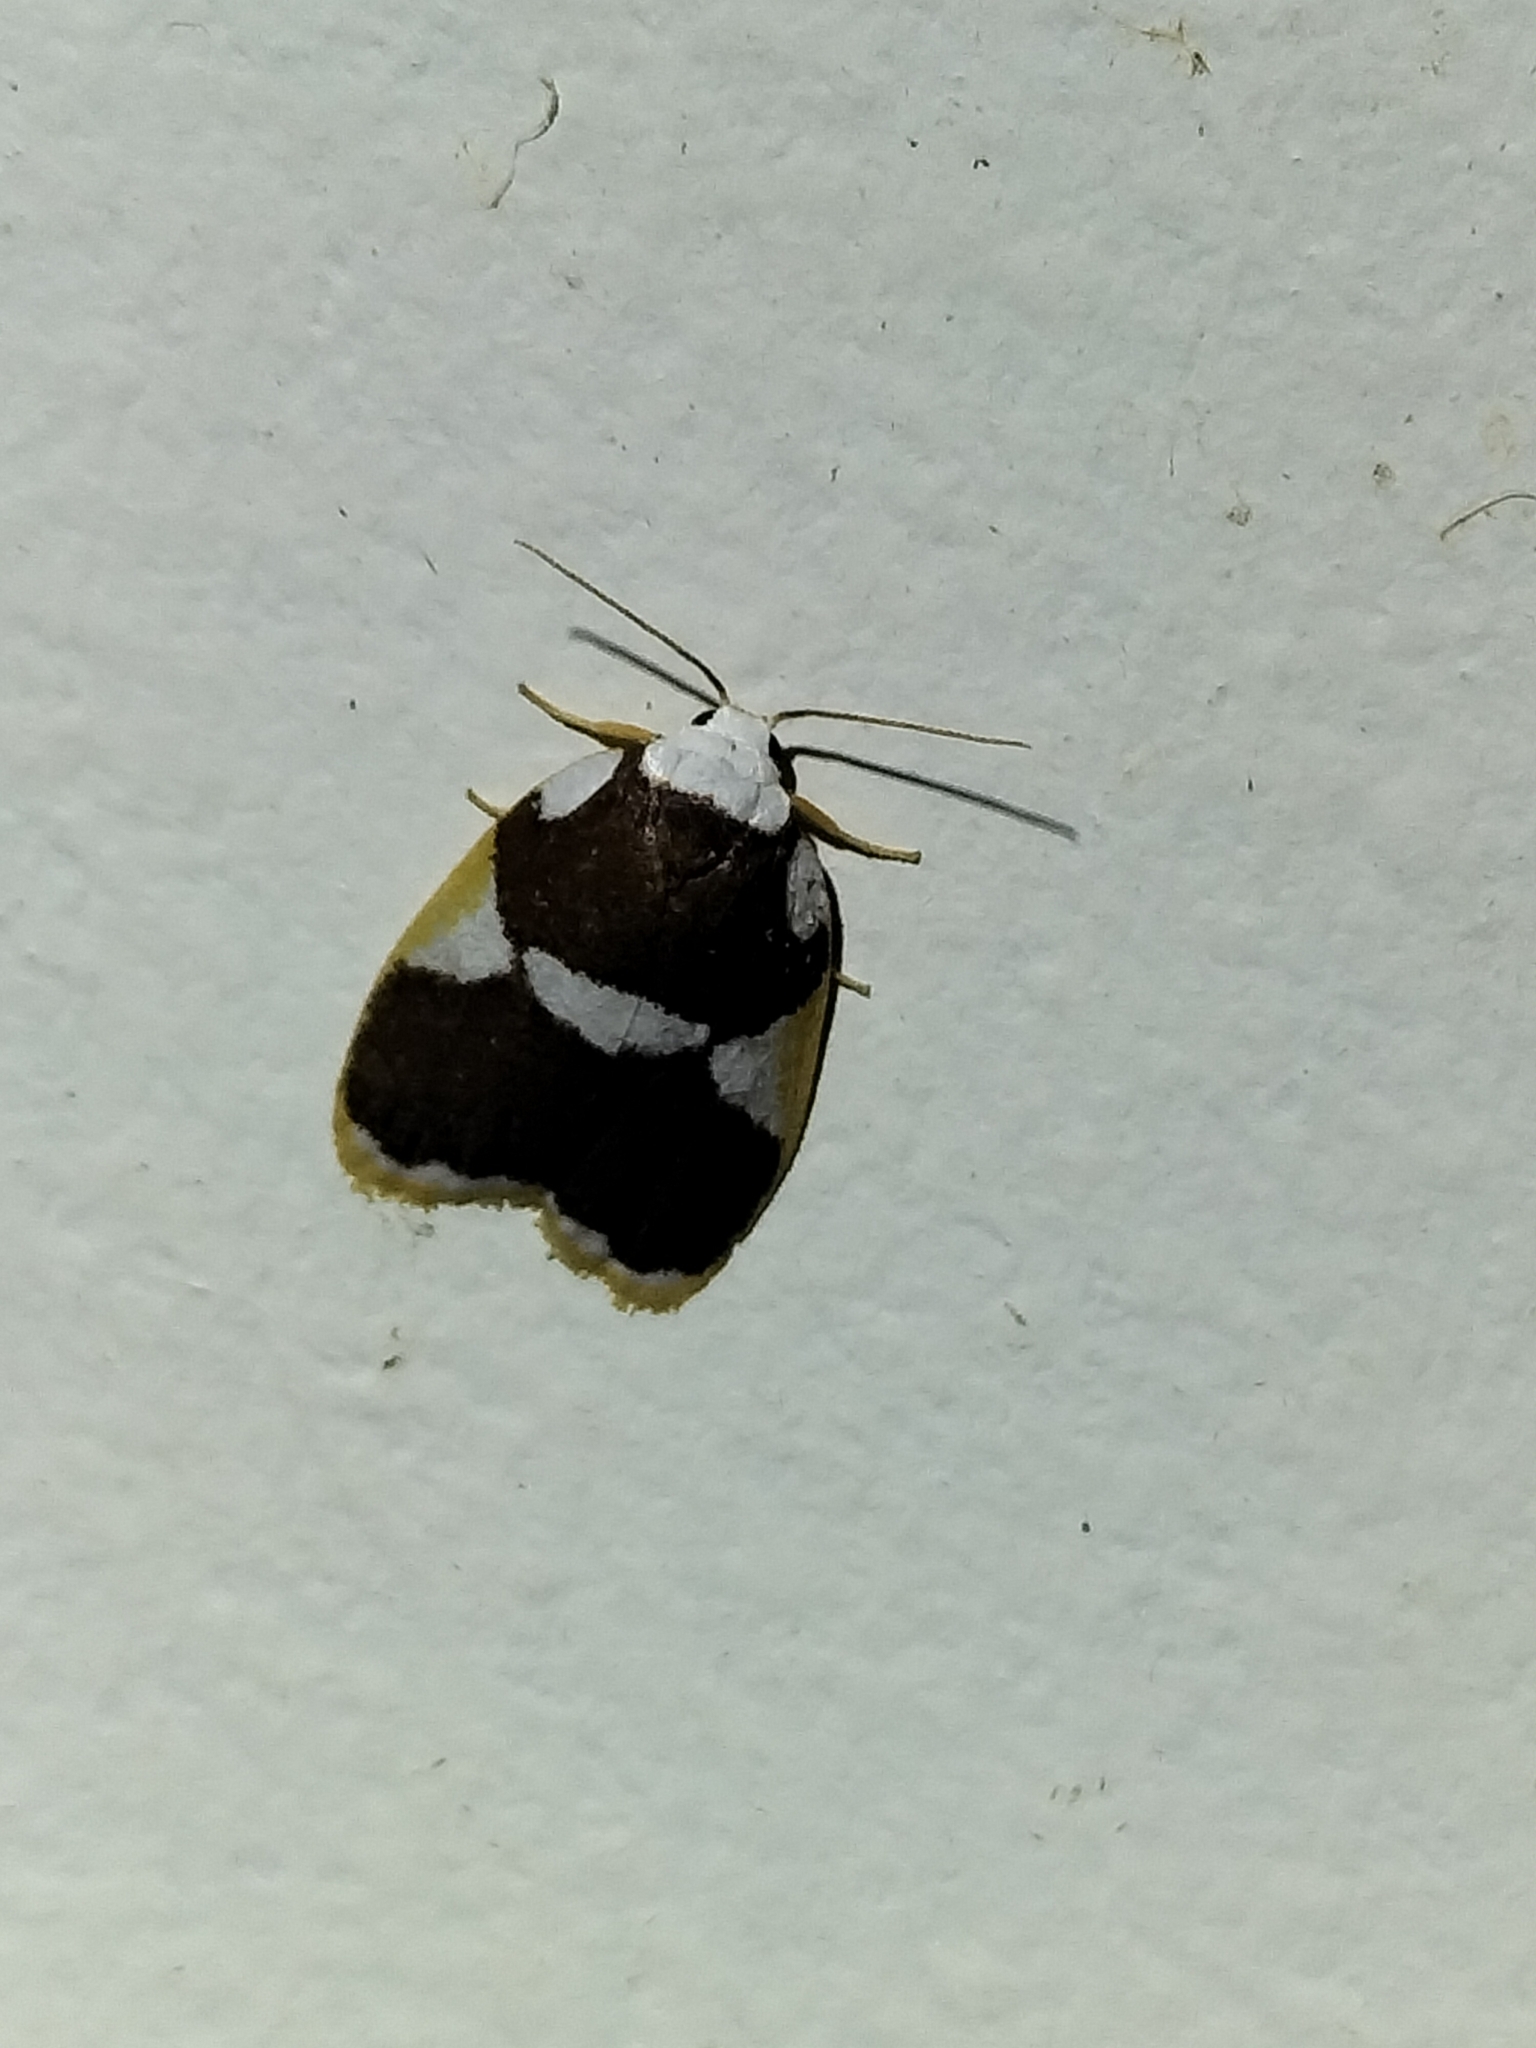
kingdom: Animalia
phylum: Arthropoda
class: Insecta
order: Lepidoptera
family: Erebidae
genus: Heterotropa
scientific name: Heterotropa fastosa
